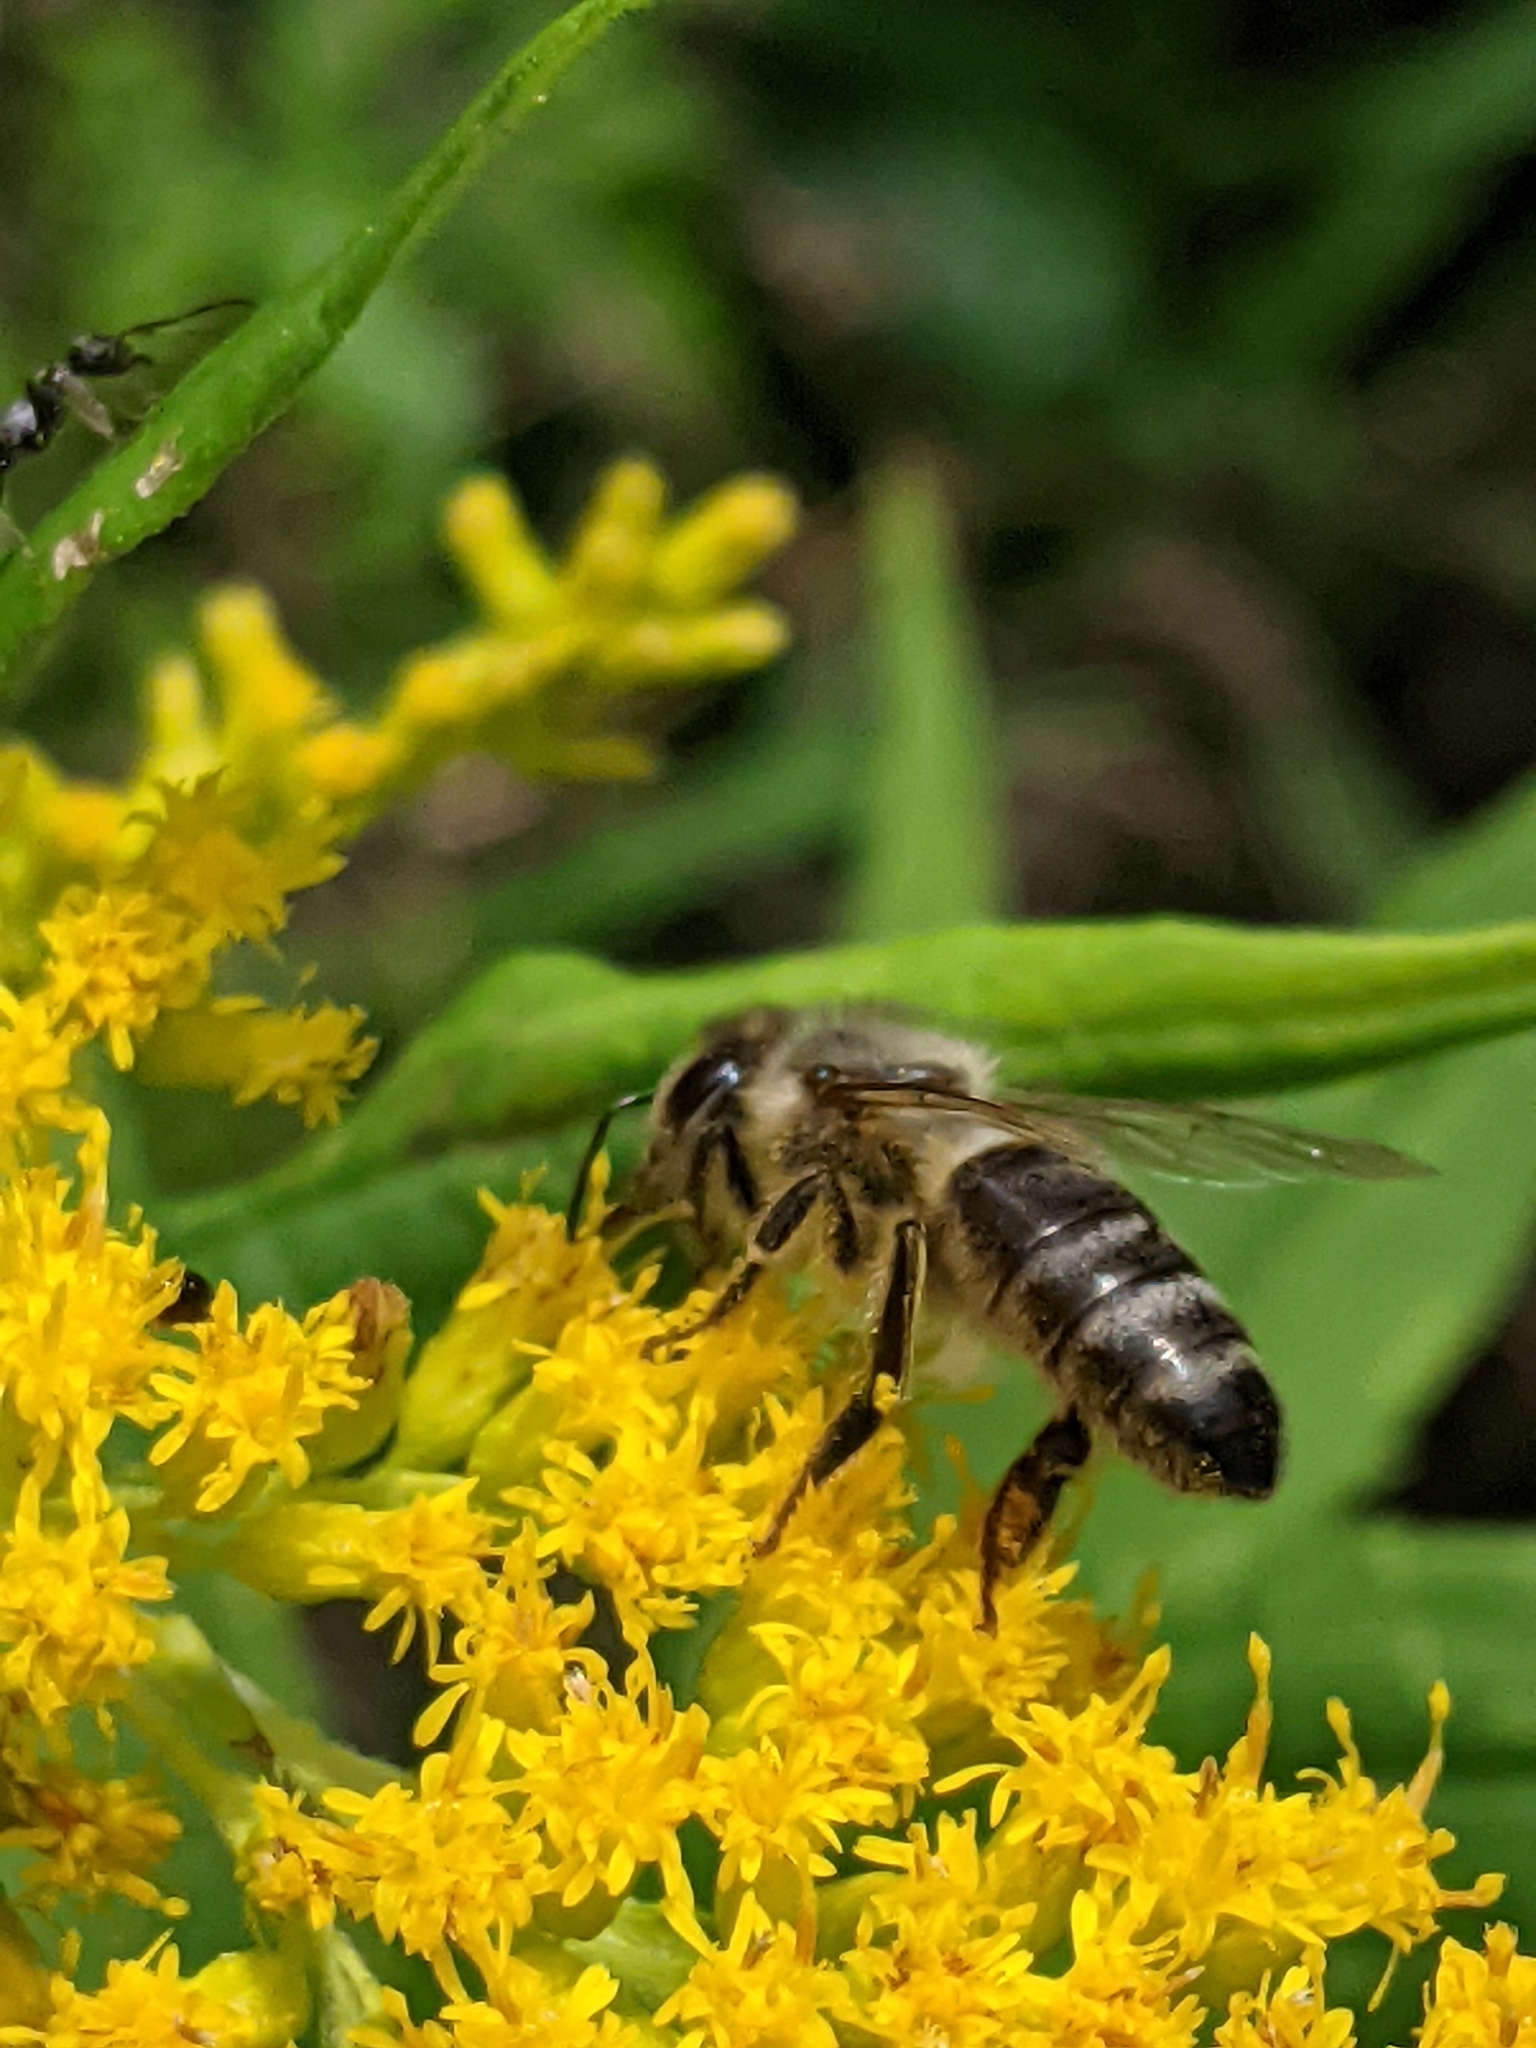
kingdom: Animalia
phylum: Arthropoda
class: Insecta
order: Hymenoptera
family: Apidae
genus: Apis
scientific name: Apis mellifera
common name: Honey bee
